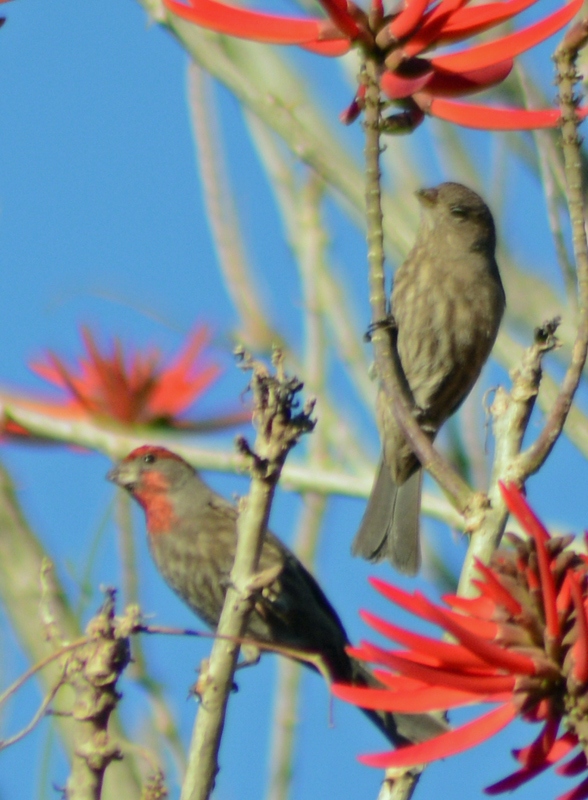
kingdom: Animalia
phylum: Chordata
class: Aves
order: Passeriformes
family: Fringillidae
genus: Haemorhous
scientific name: Haemorhous mexicanus
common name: House finch
